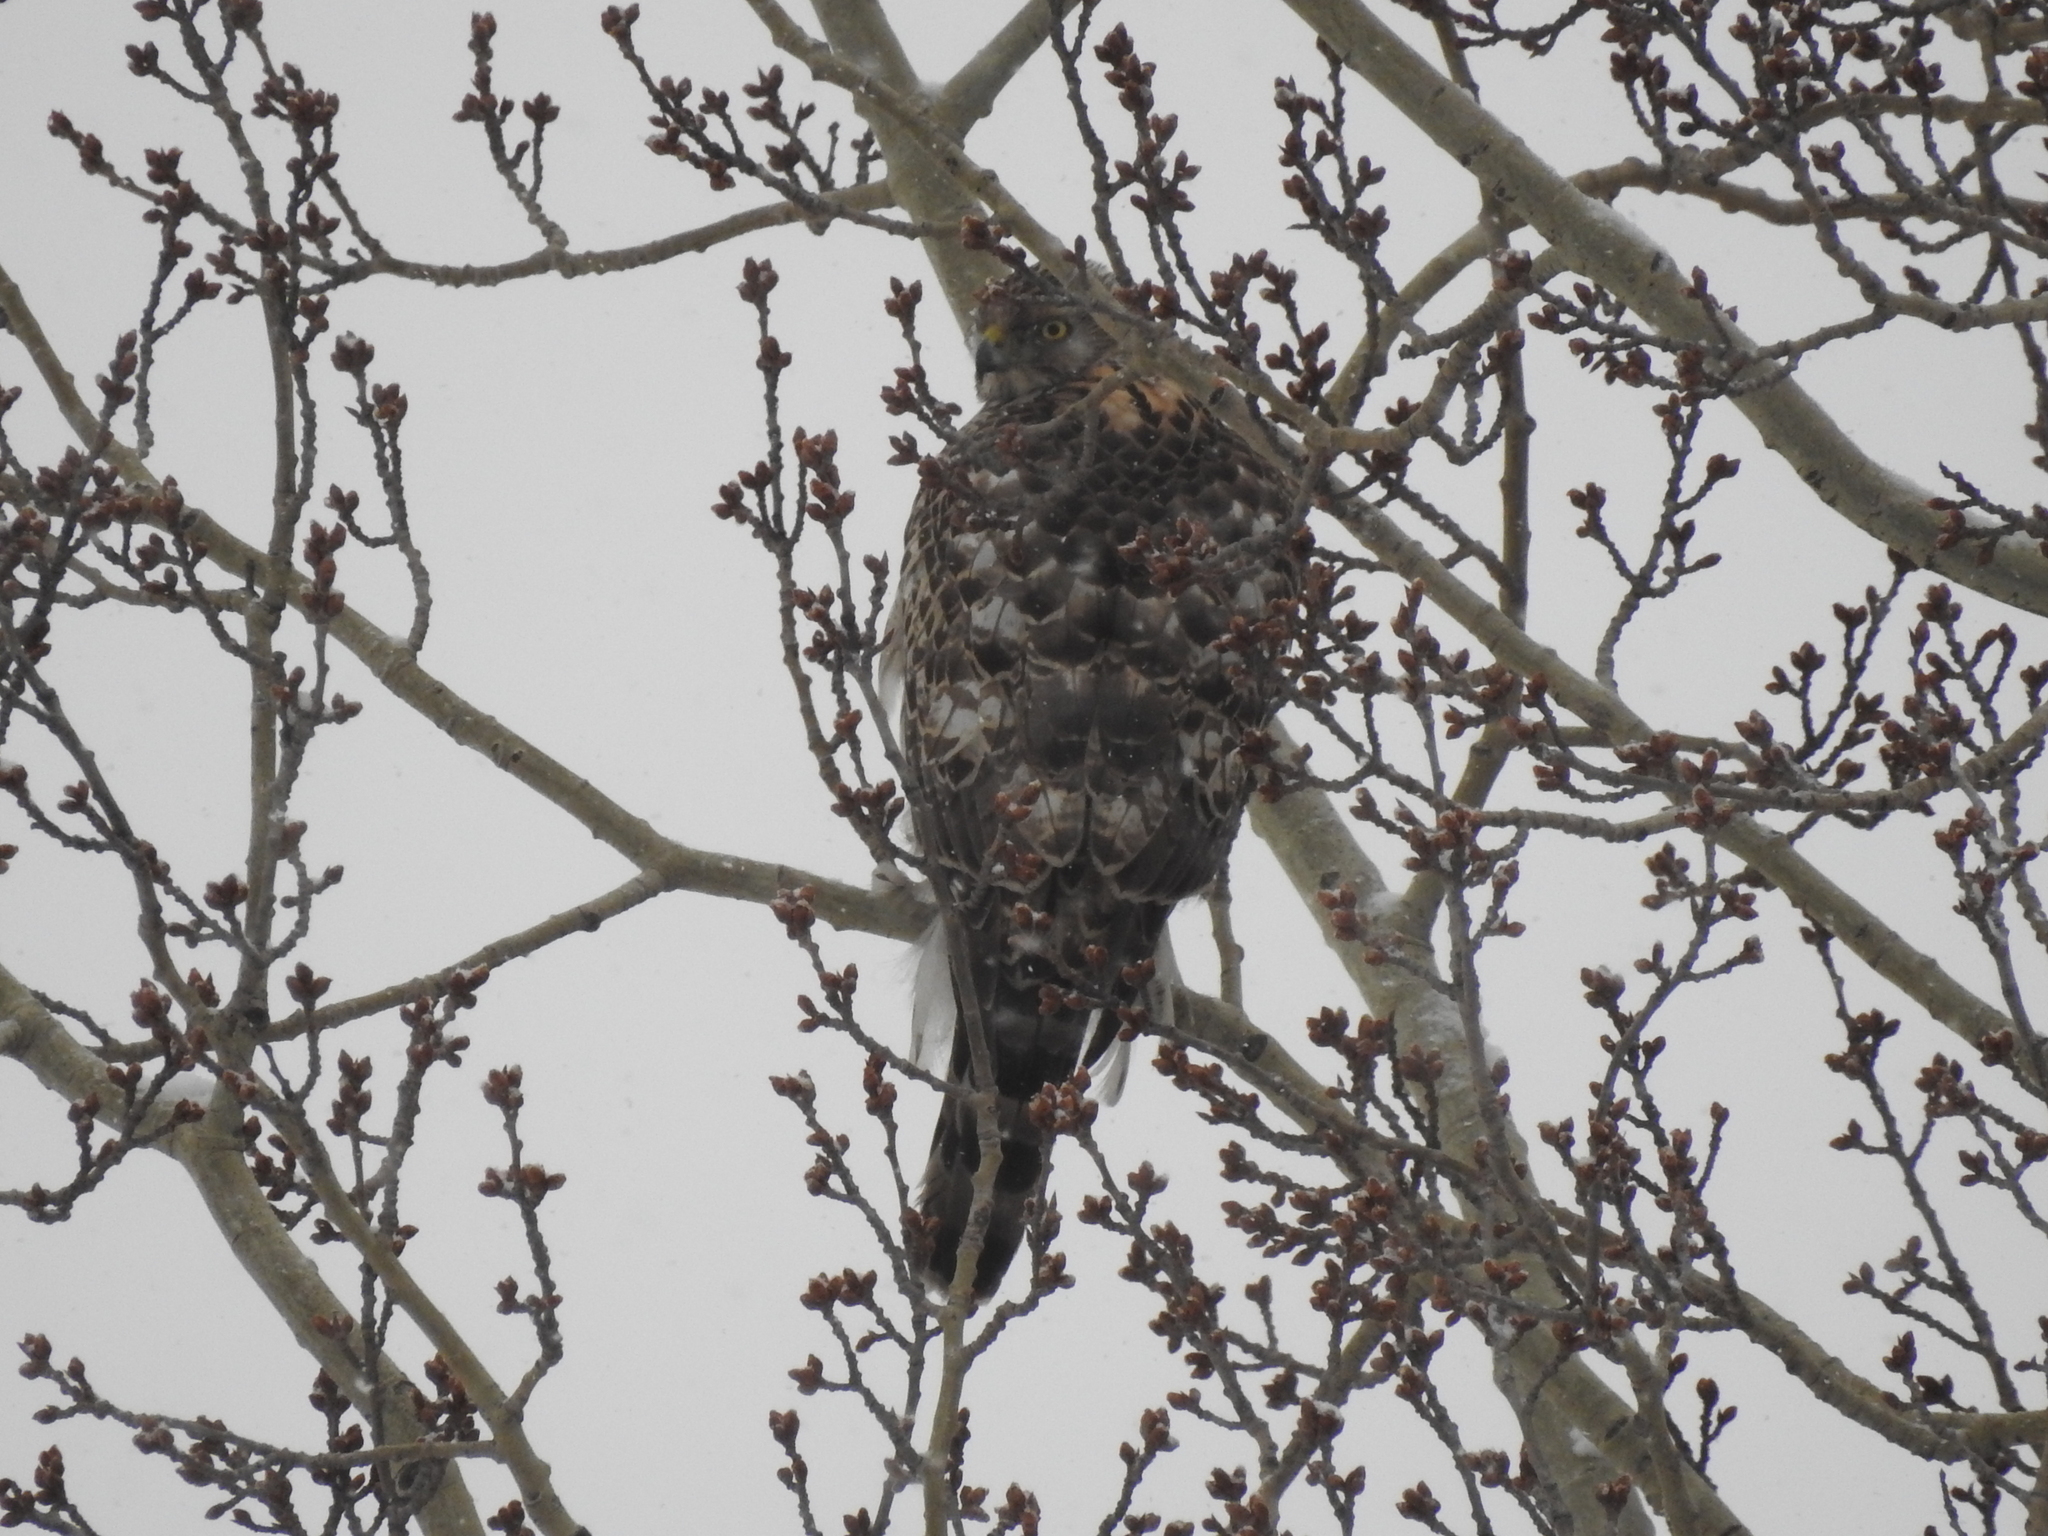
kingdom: Animalia
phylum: Chordata
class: Aves
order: Accipitriformes
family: Accipitridae
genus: Accipiter
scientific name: Accipiter gentilis
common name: Northern goshawk
